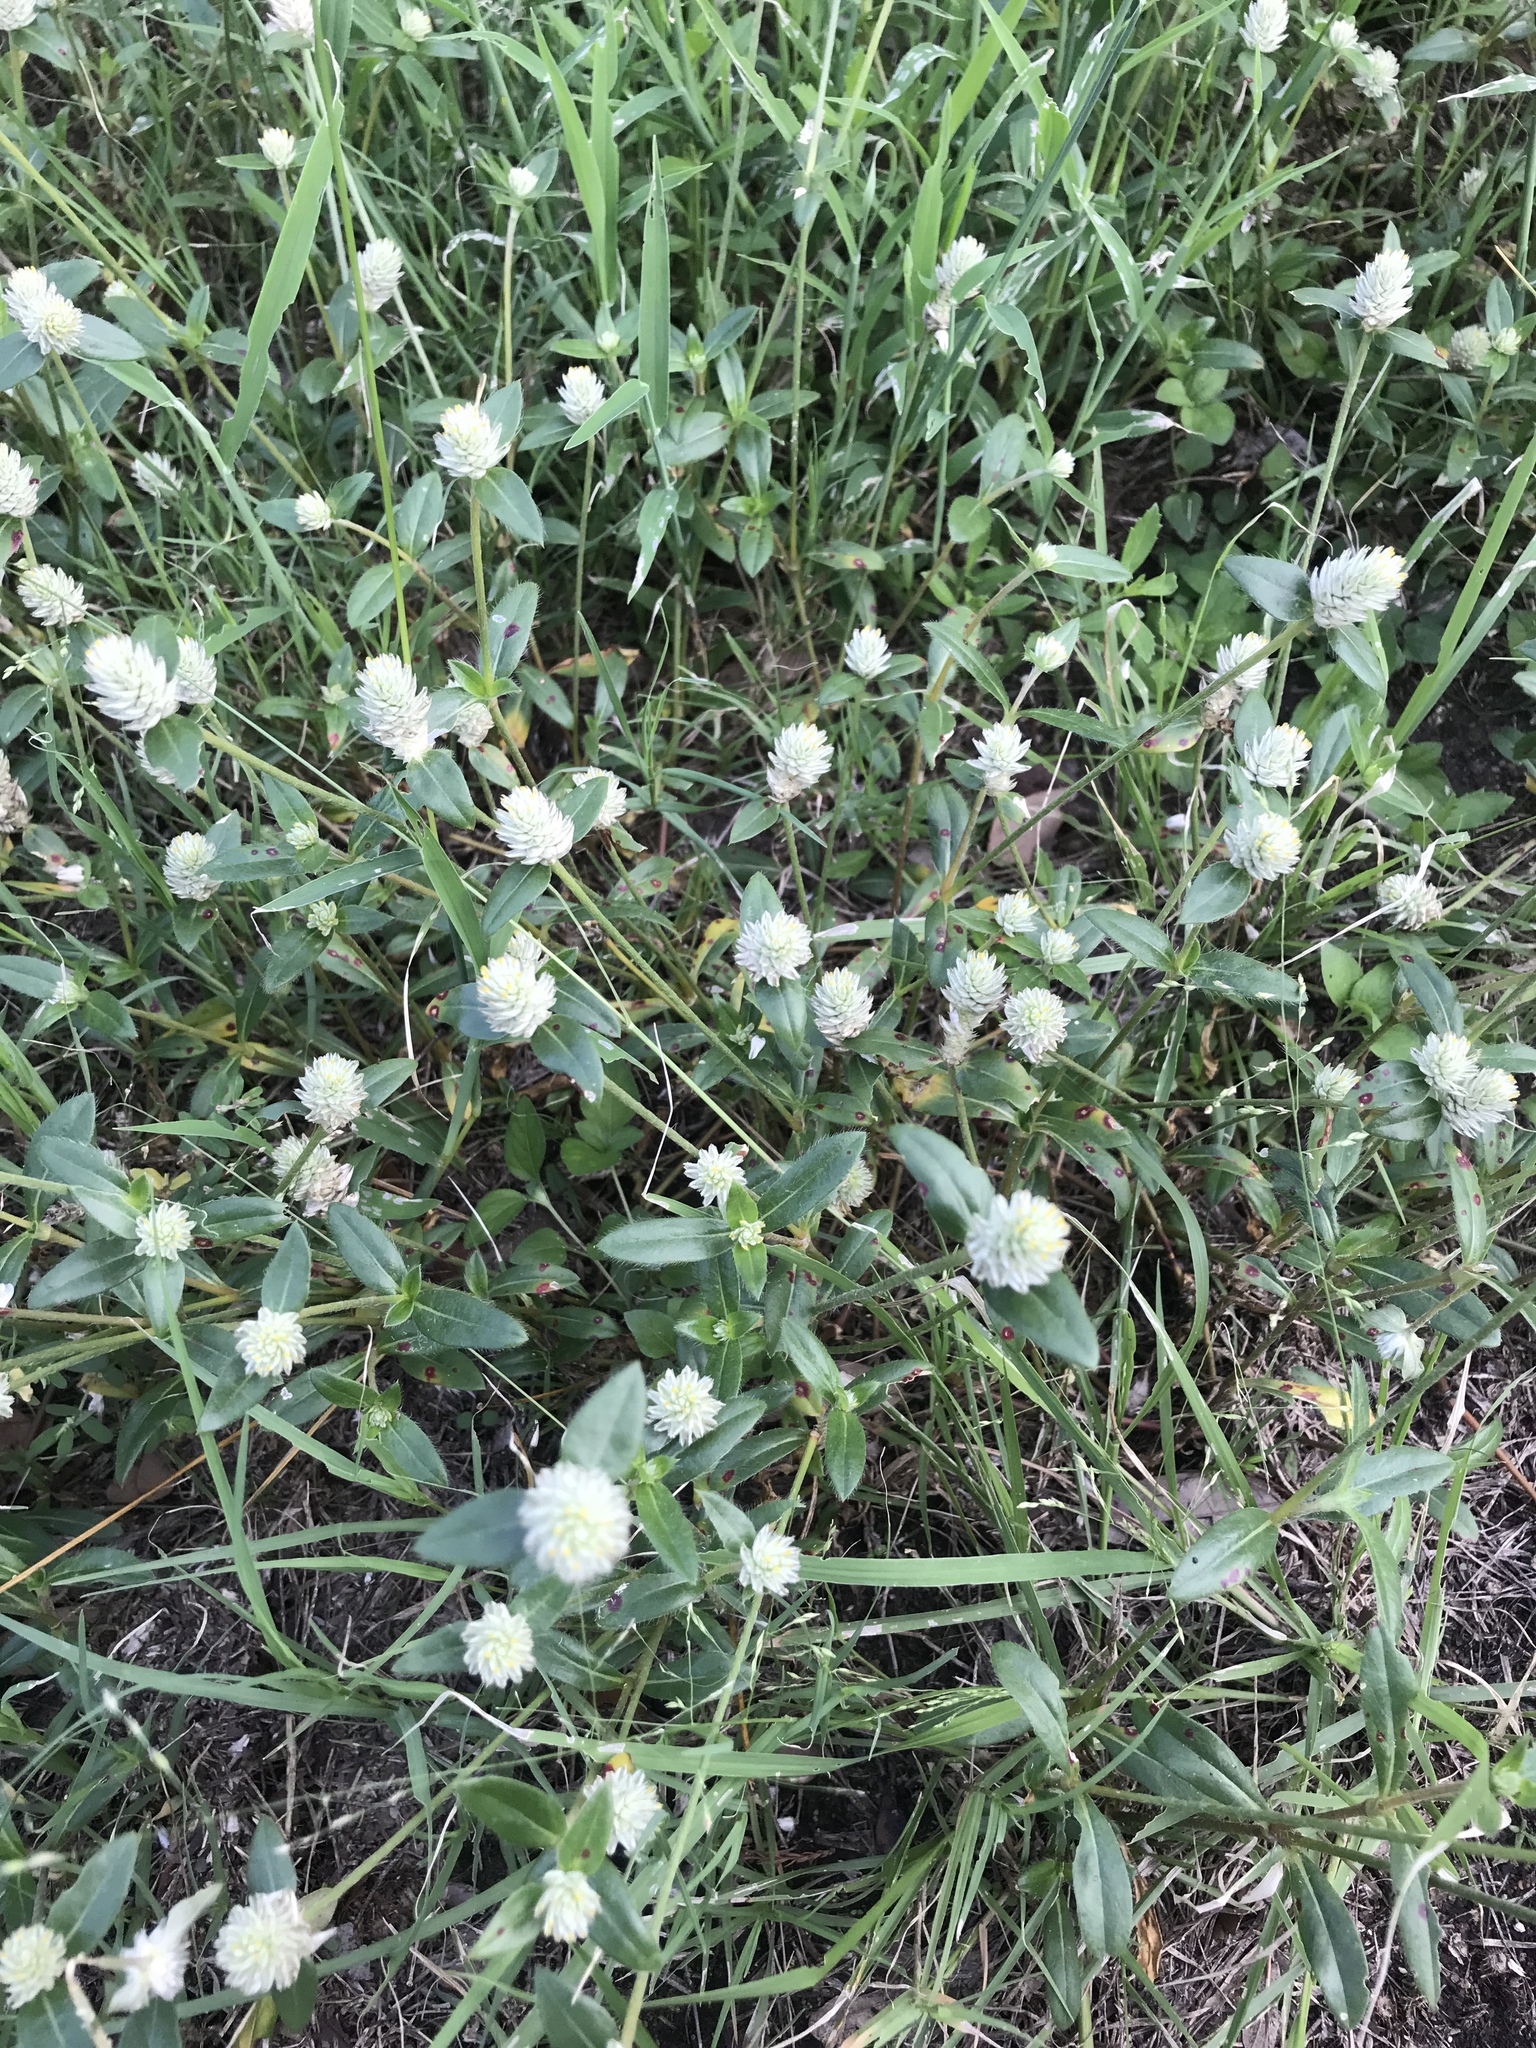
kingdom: Plantae
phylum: Tracheophyta
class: Magnoliopsida
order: Caryophyllales
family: Amaranthaceae
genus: Gomphrena
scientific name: Gomphrena serrata
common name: Arrasa con todo
